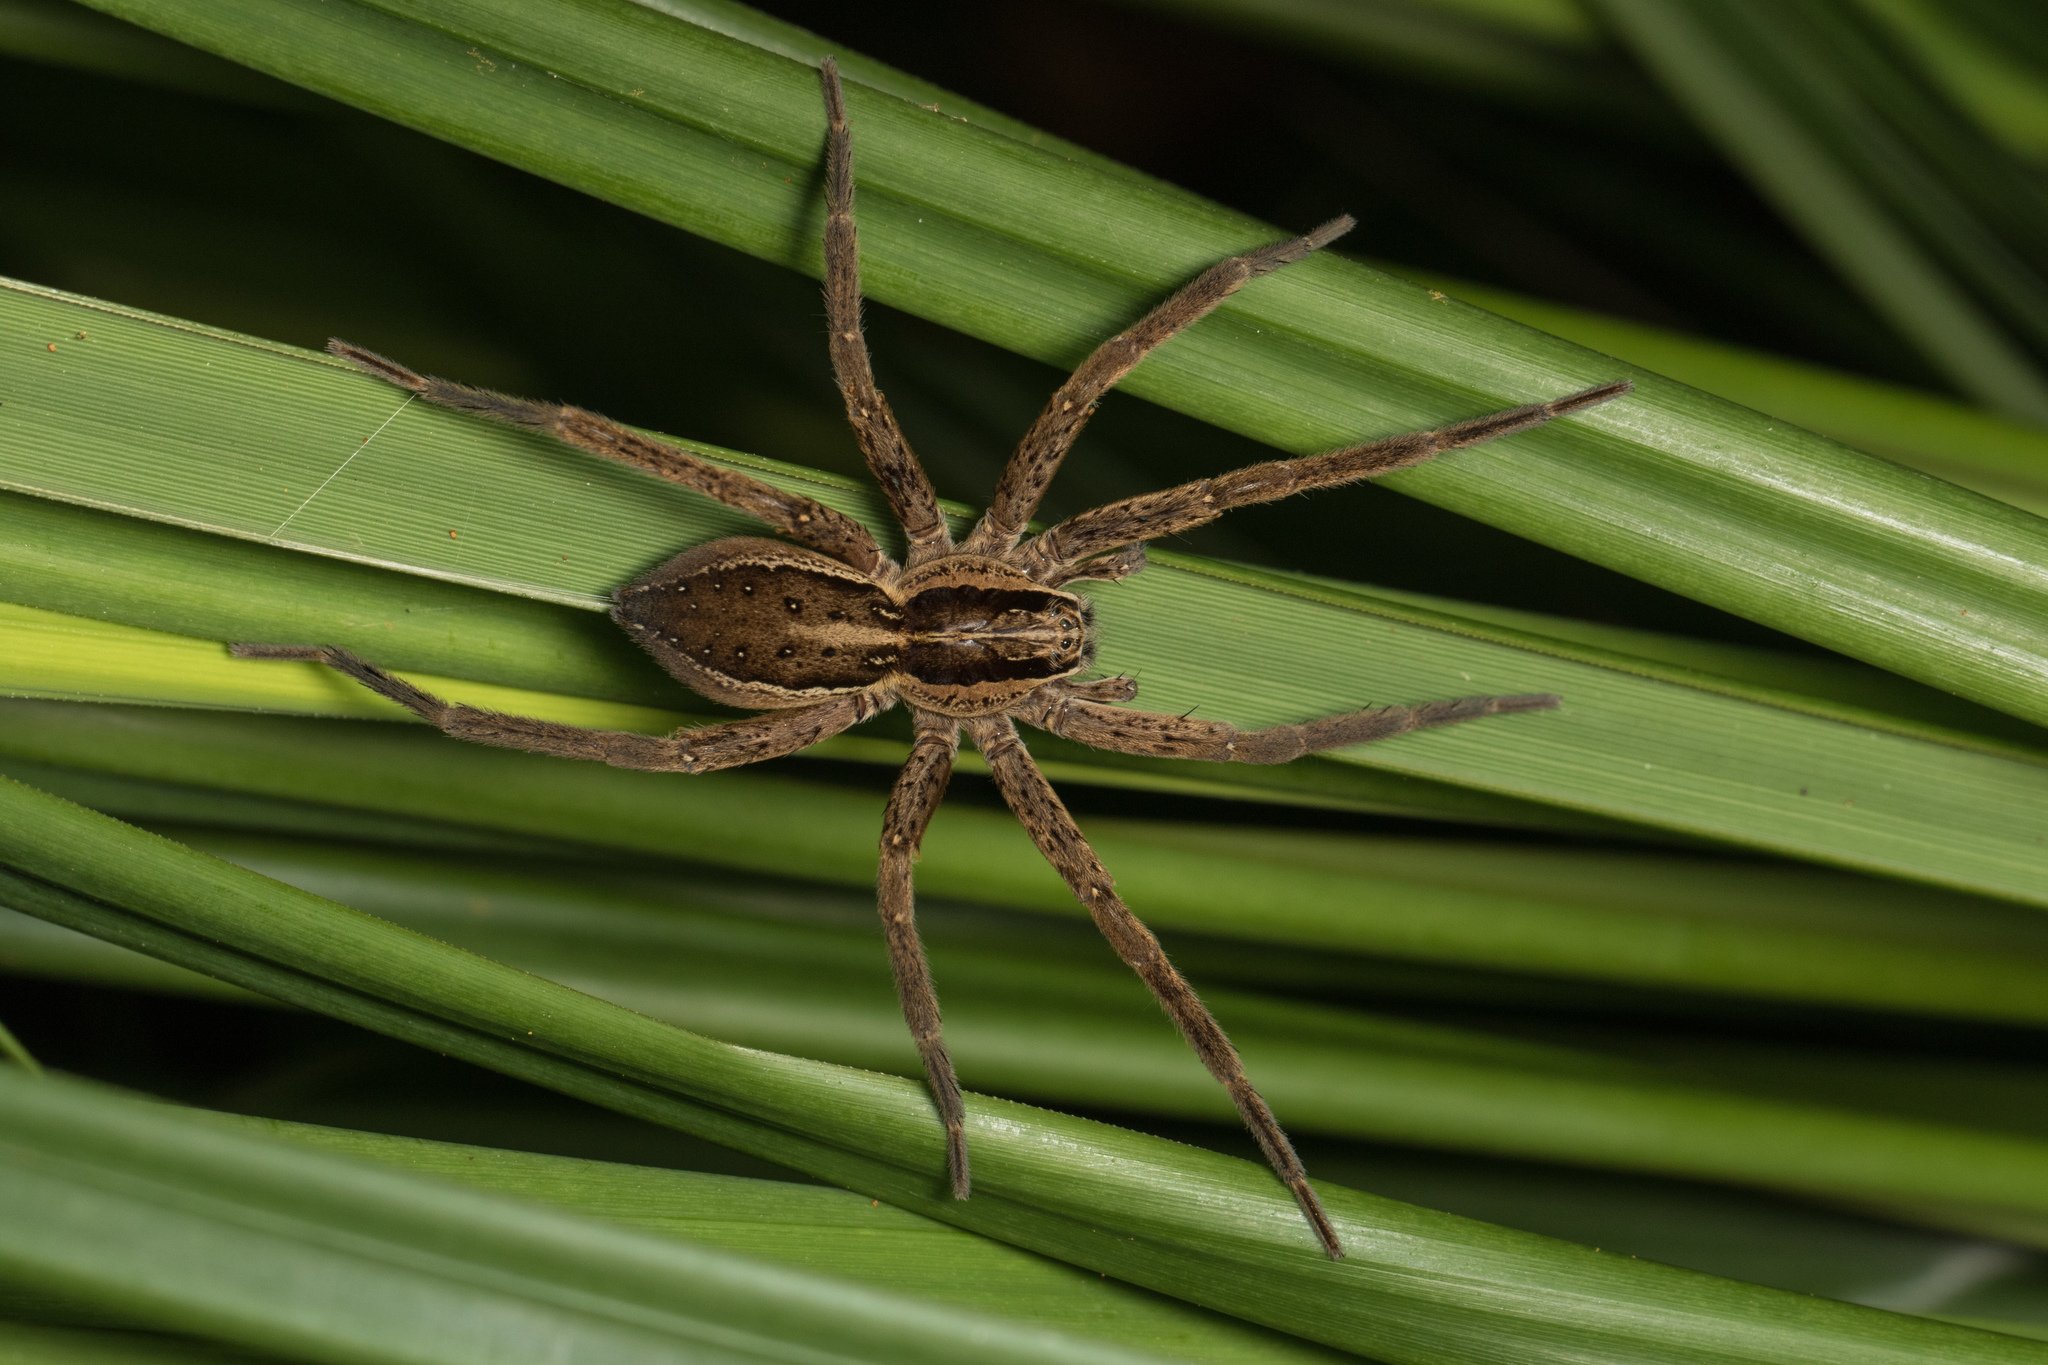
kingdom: Animalia
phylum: Arthropoda
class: Arachnida
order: Araneae
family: Pisauridae
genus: Dolomedes
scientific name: Dolomedes minor
